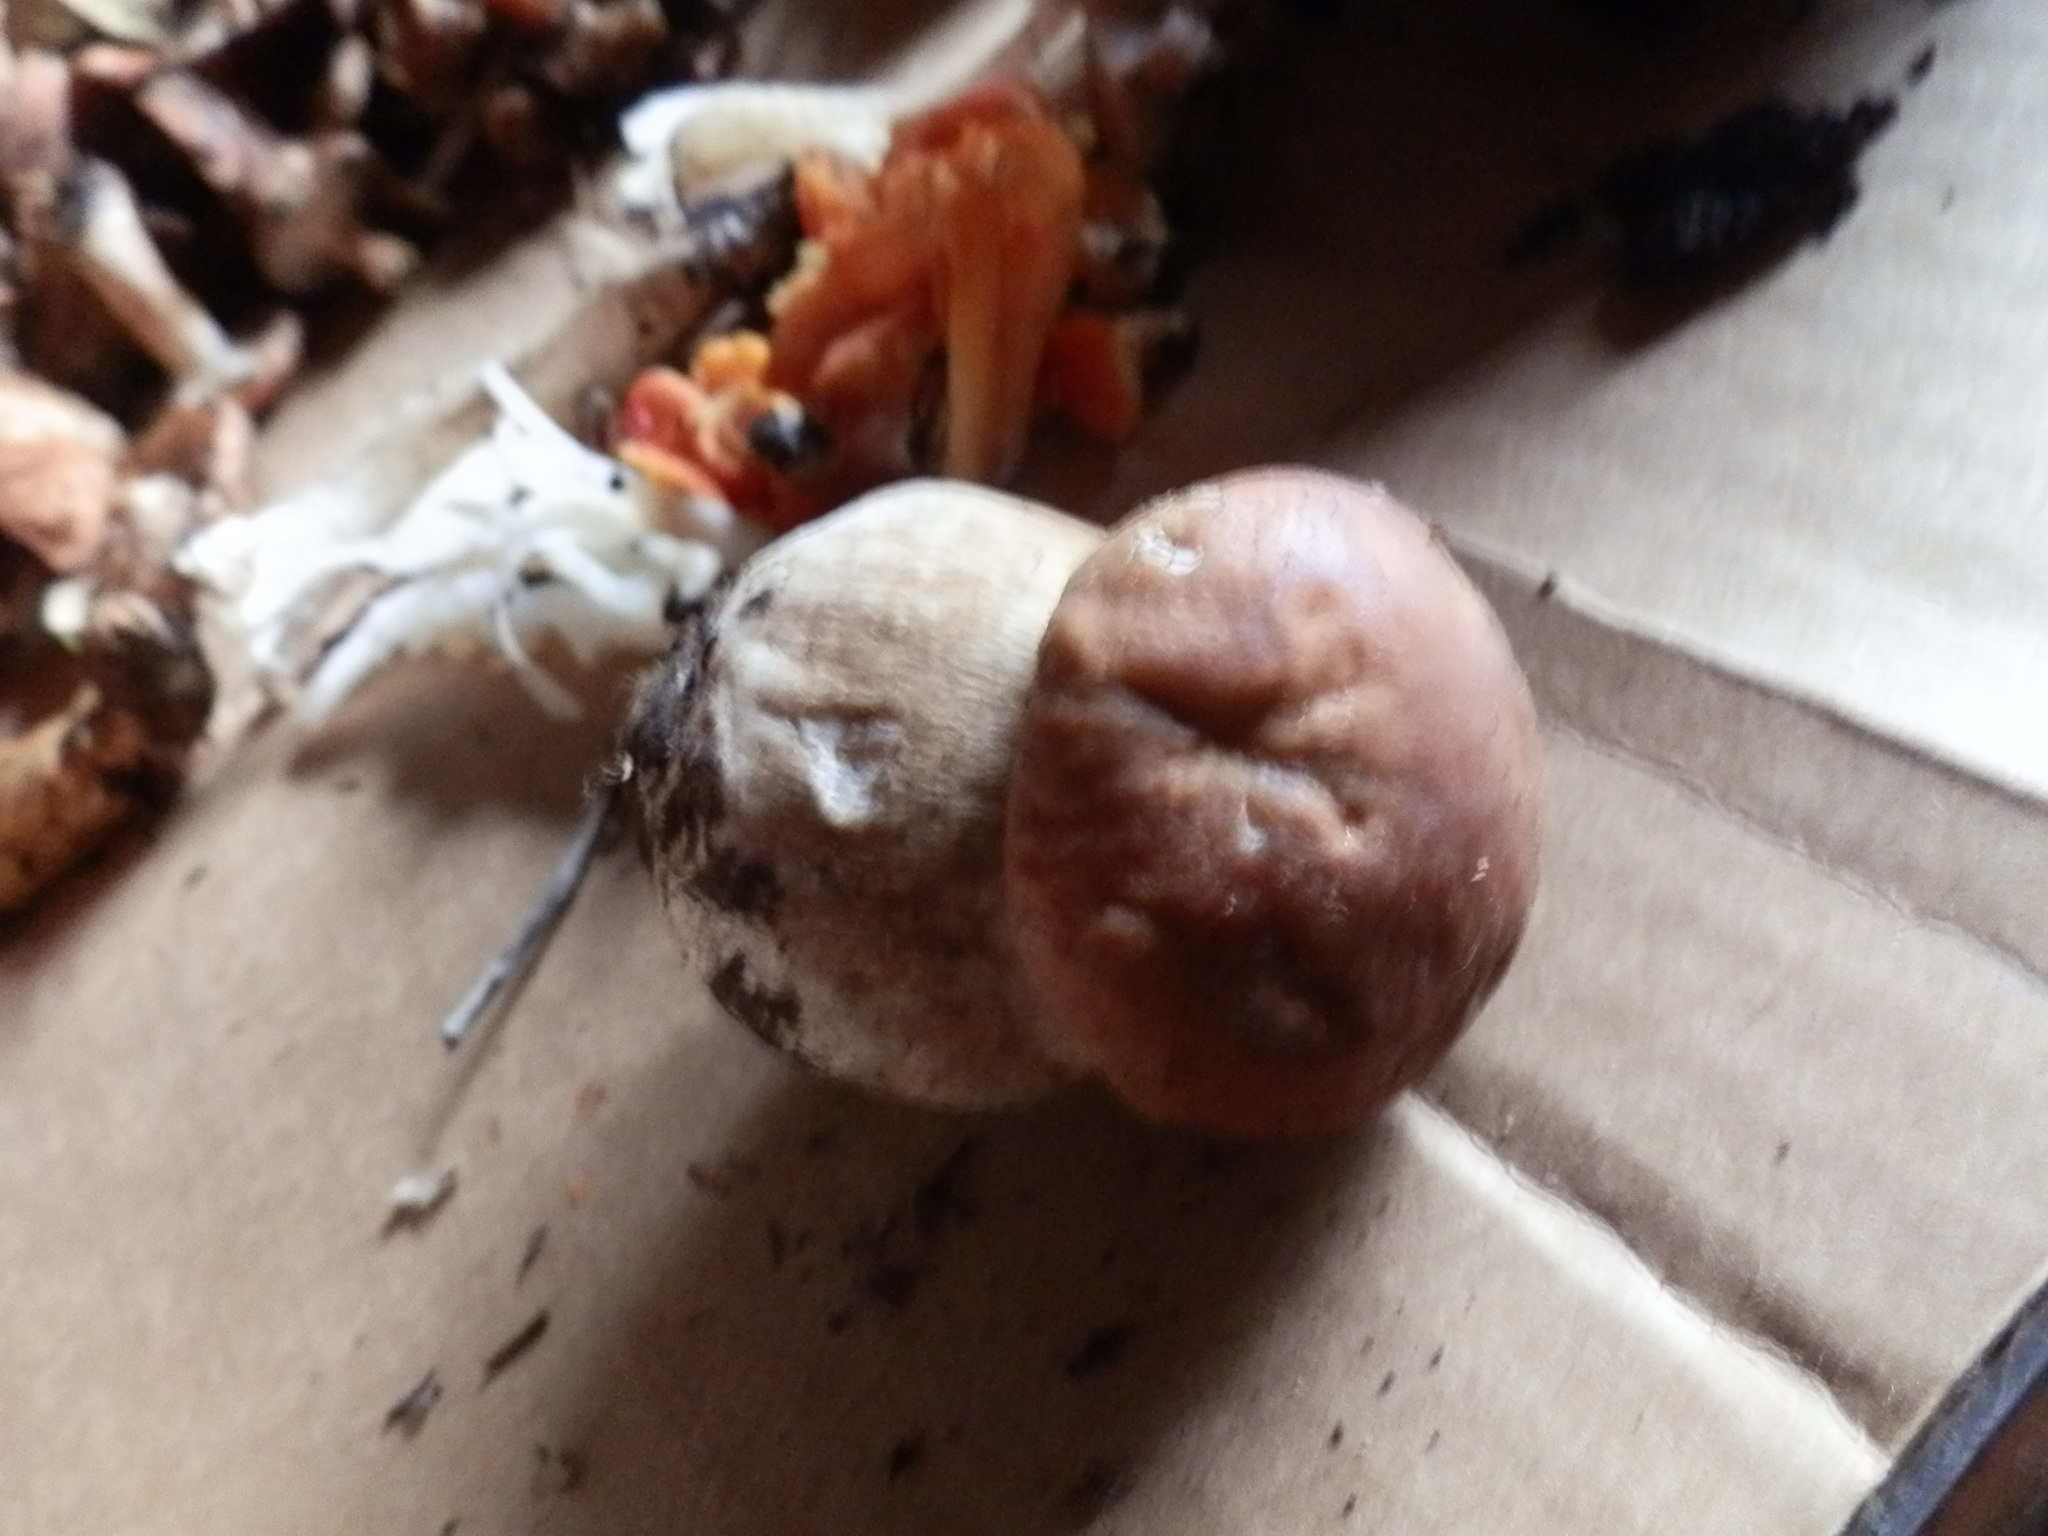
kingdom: Fungi
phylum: Basidiomycota
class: Agaricomycetes
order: Boletales
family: Boletaceae
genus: Boletus
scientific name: Boletus edulis
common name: Cep
